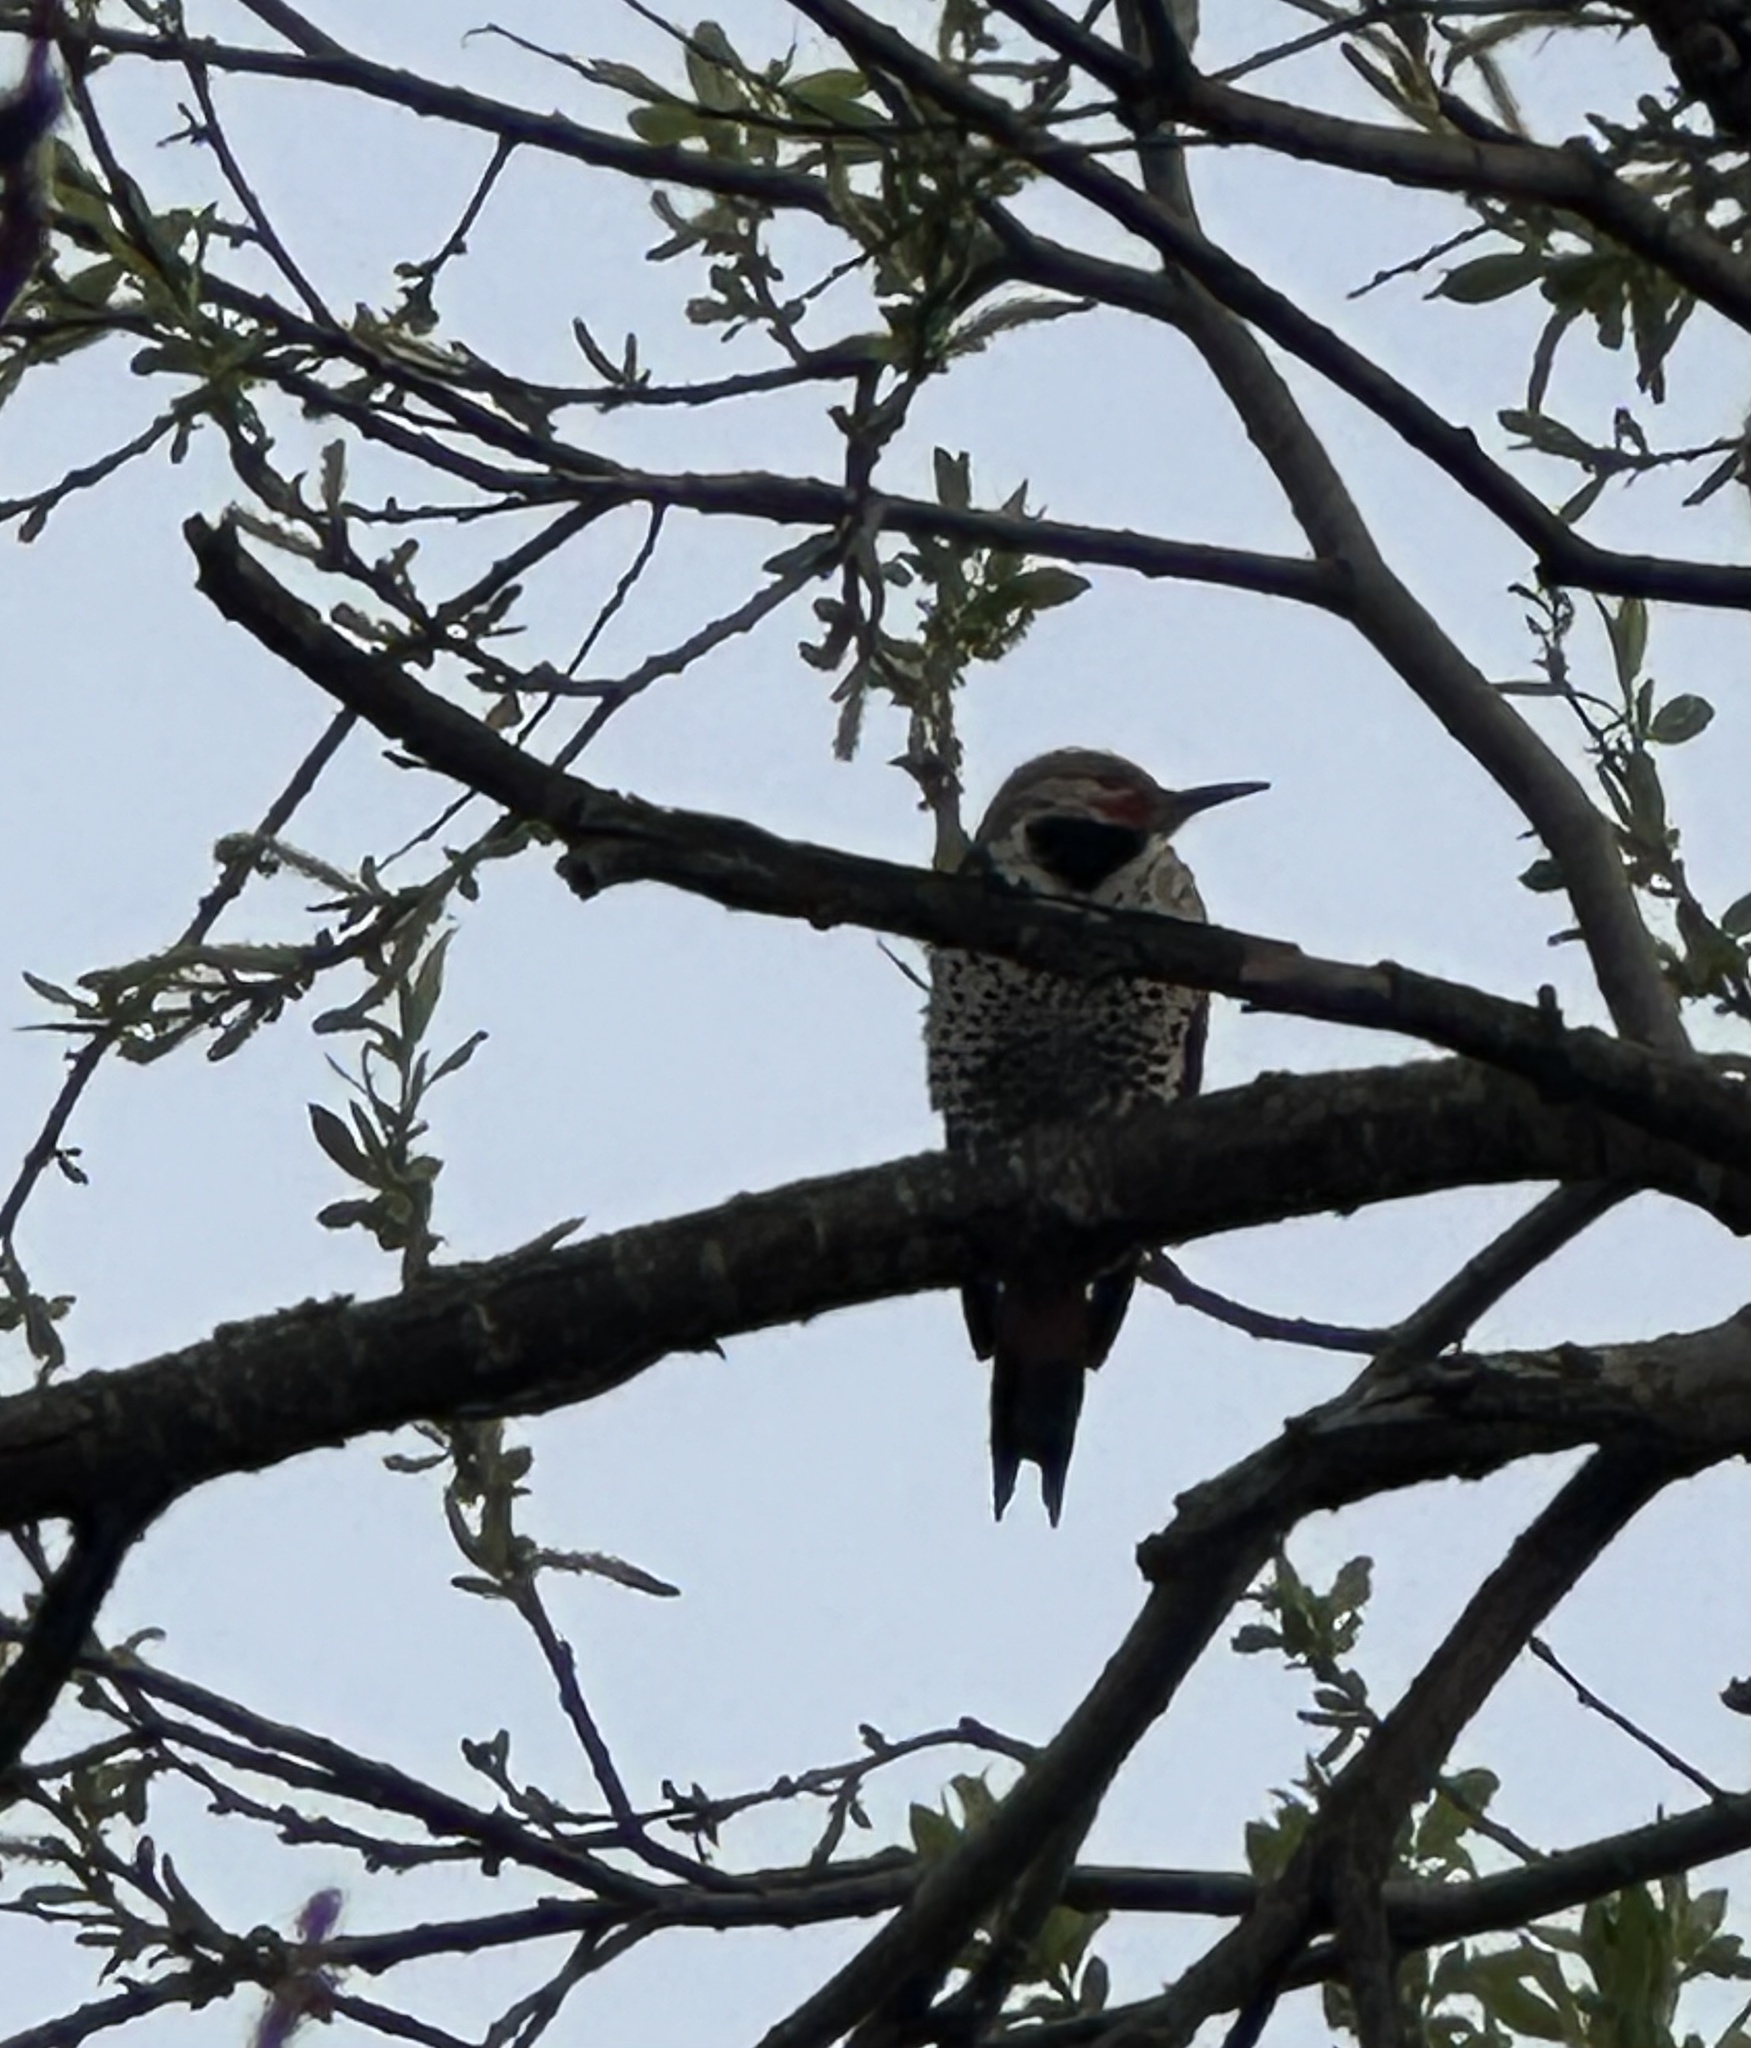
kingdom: Animalia
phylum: Chordata
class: Aves
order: Piciformes
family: Picidae
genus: Colaptes
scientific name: Colaptes auratus
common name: Northern flicker
